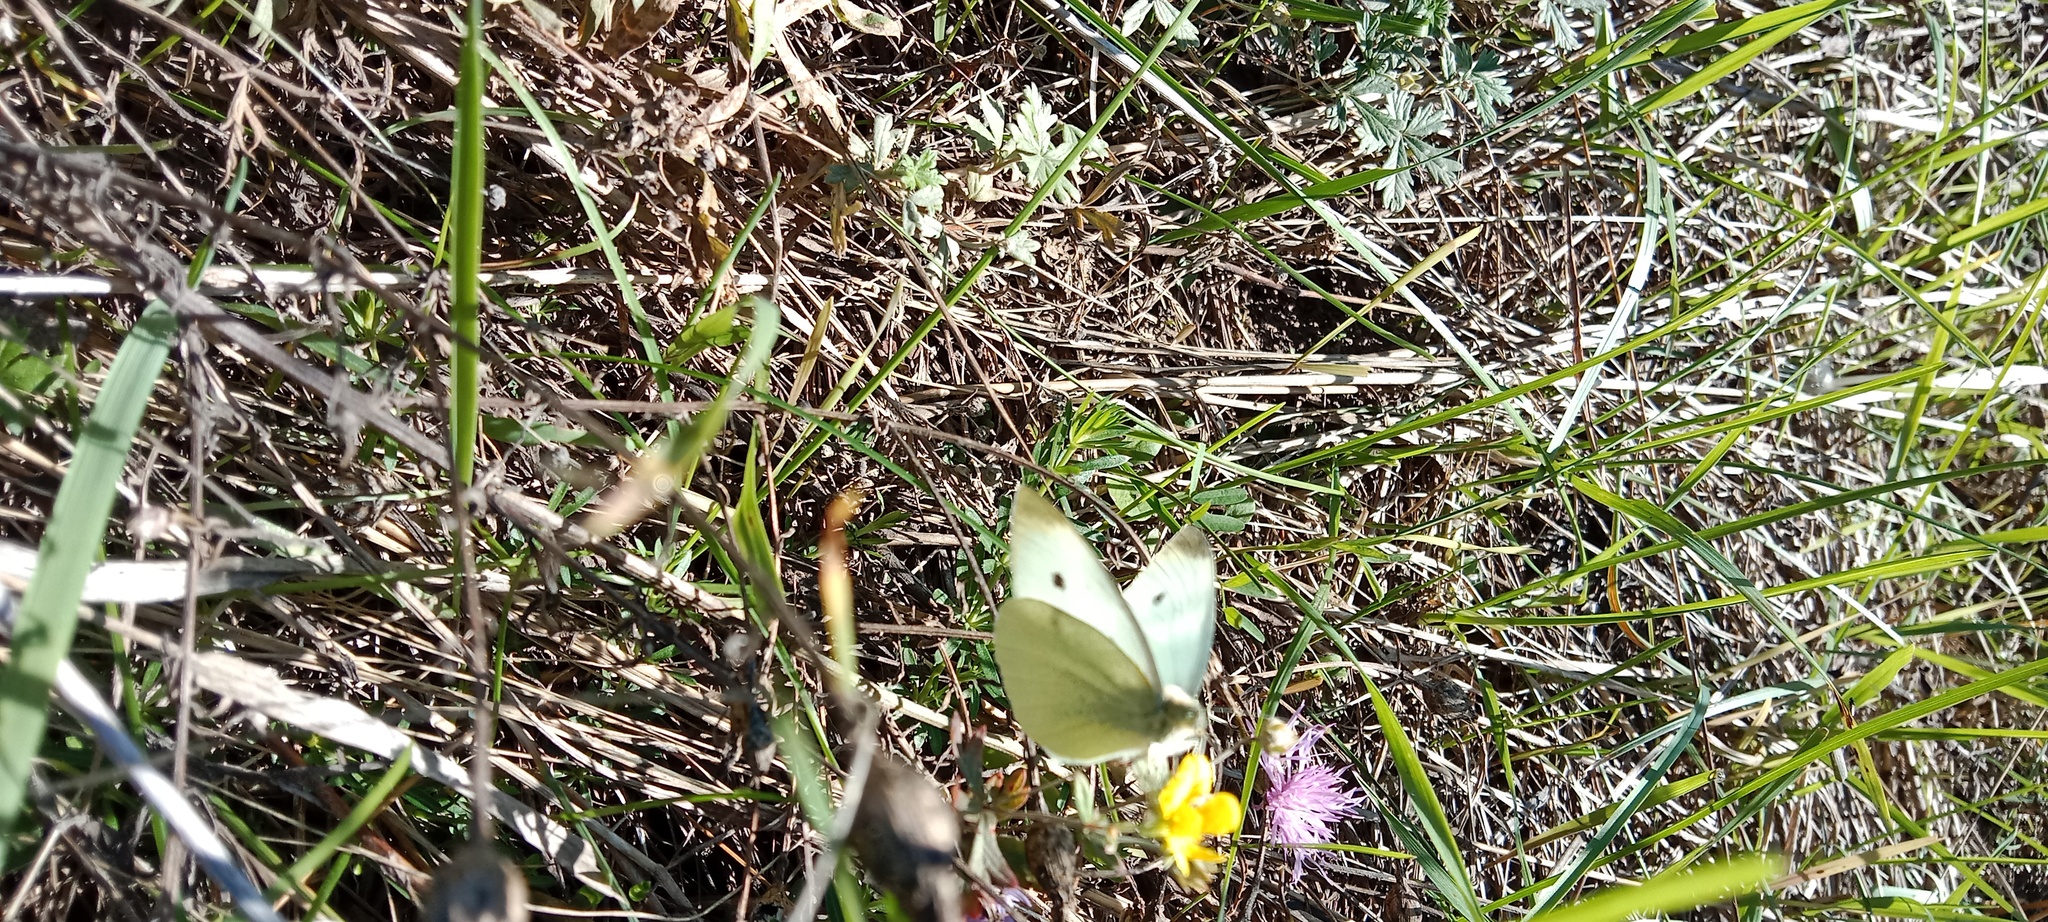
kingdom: Animalia
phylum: Arthropoda
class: Insecta
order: Lepidoptera
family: Pieridae
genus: Pieris
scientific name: Pieris rapae
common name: Small white
